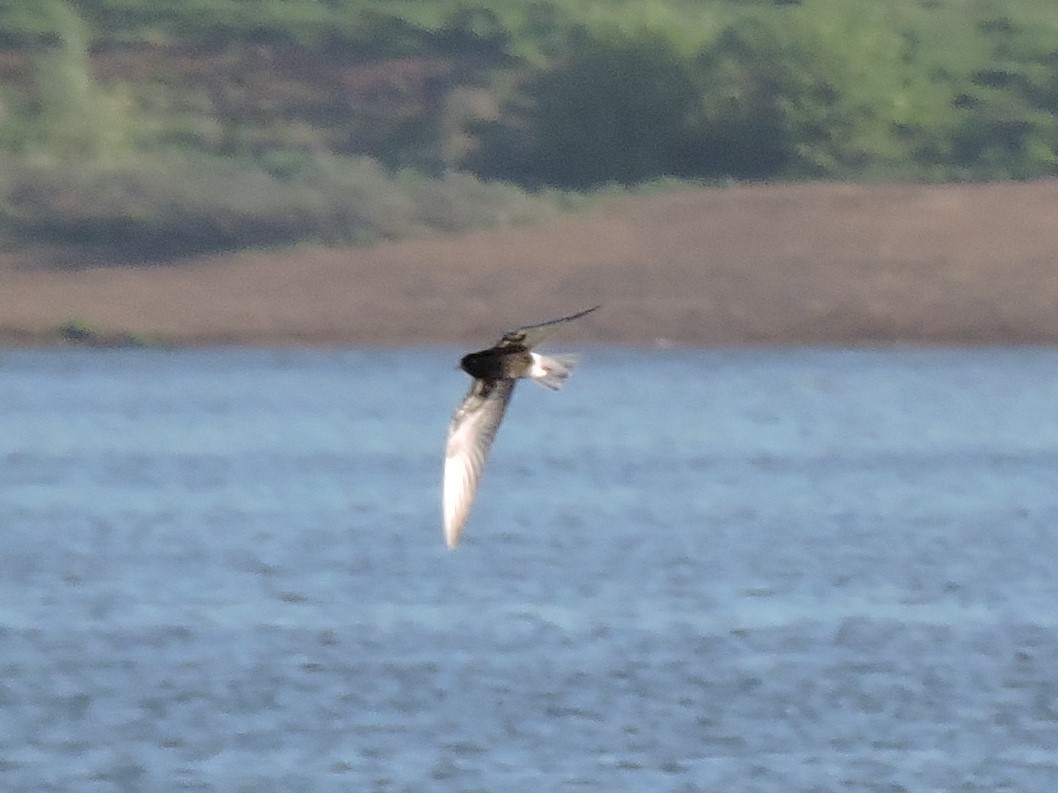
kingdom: Animalia
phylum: Chordata
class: Aves
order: Charadriiformes
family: Laridae
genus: Chlidonias
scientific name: Chlidonias leucopterus
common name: White-winged tern
